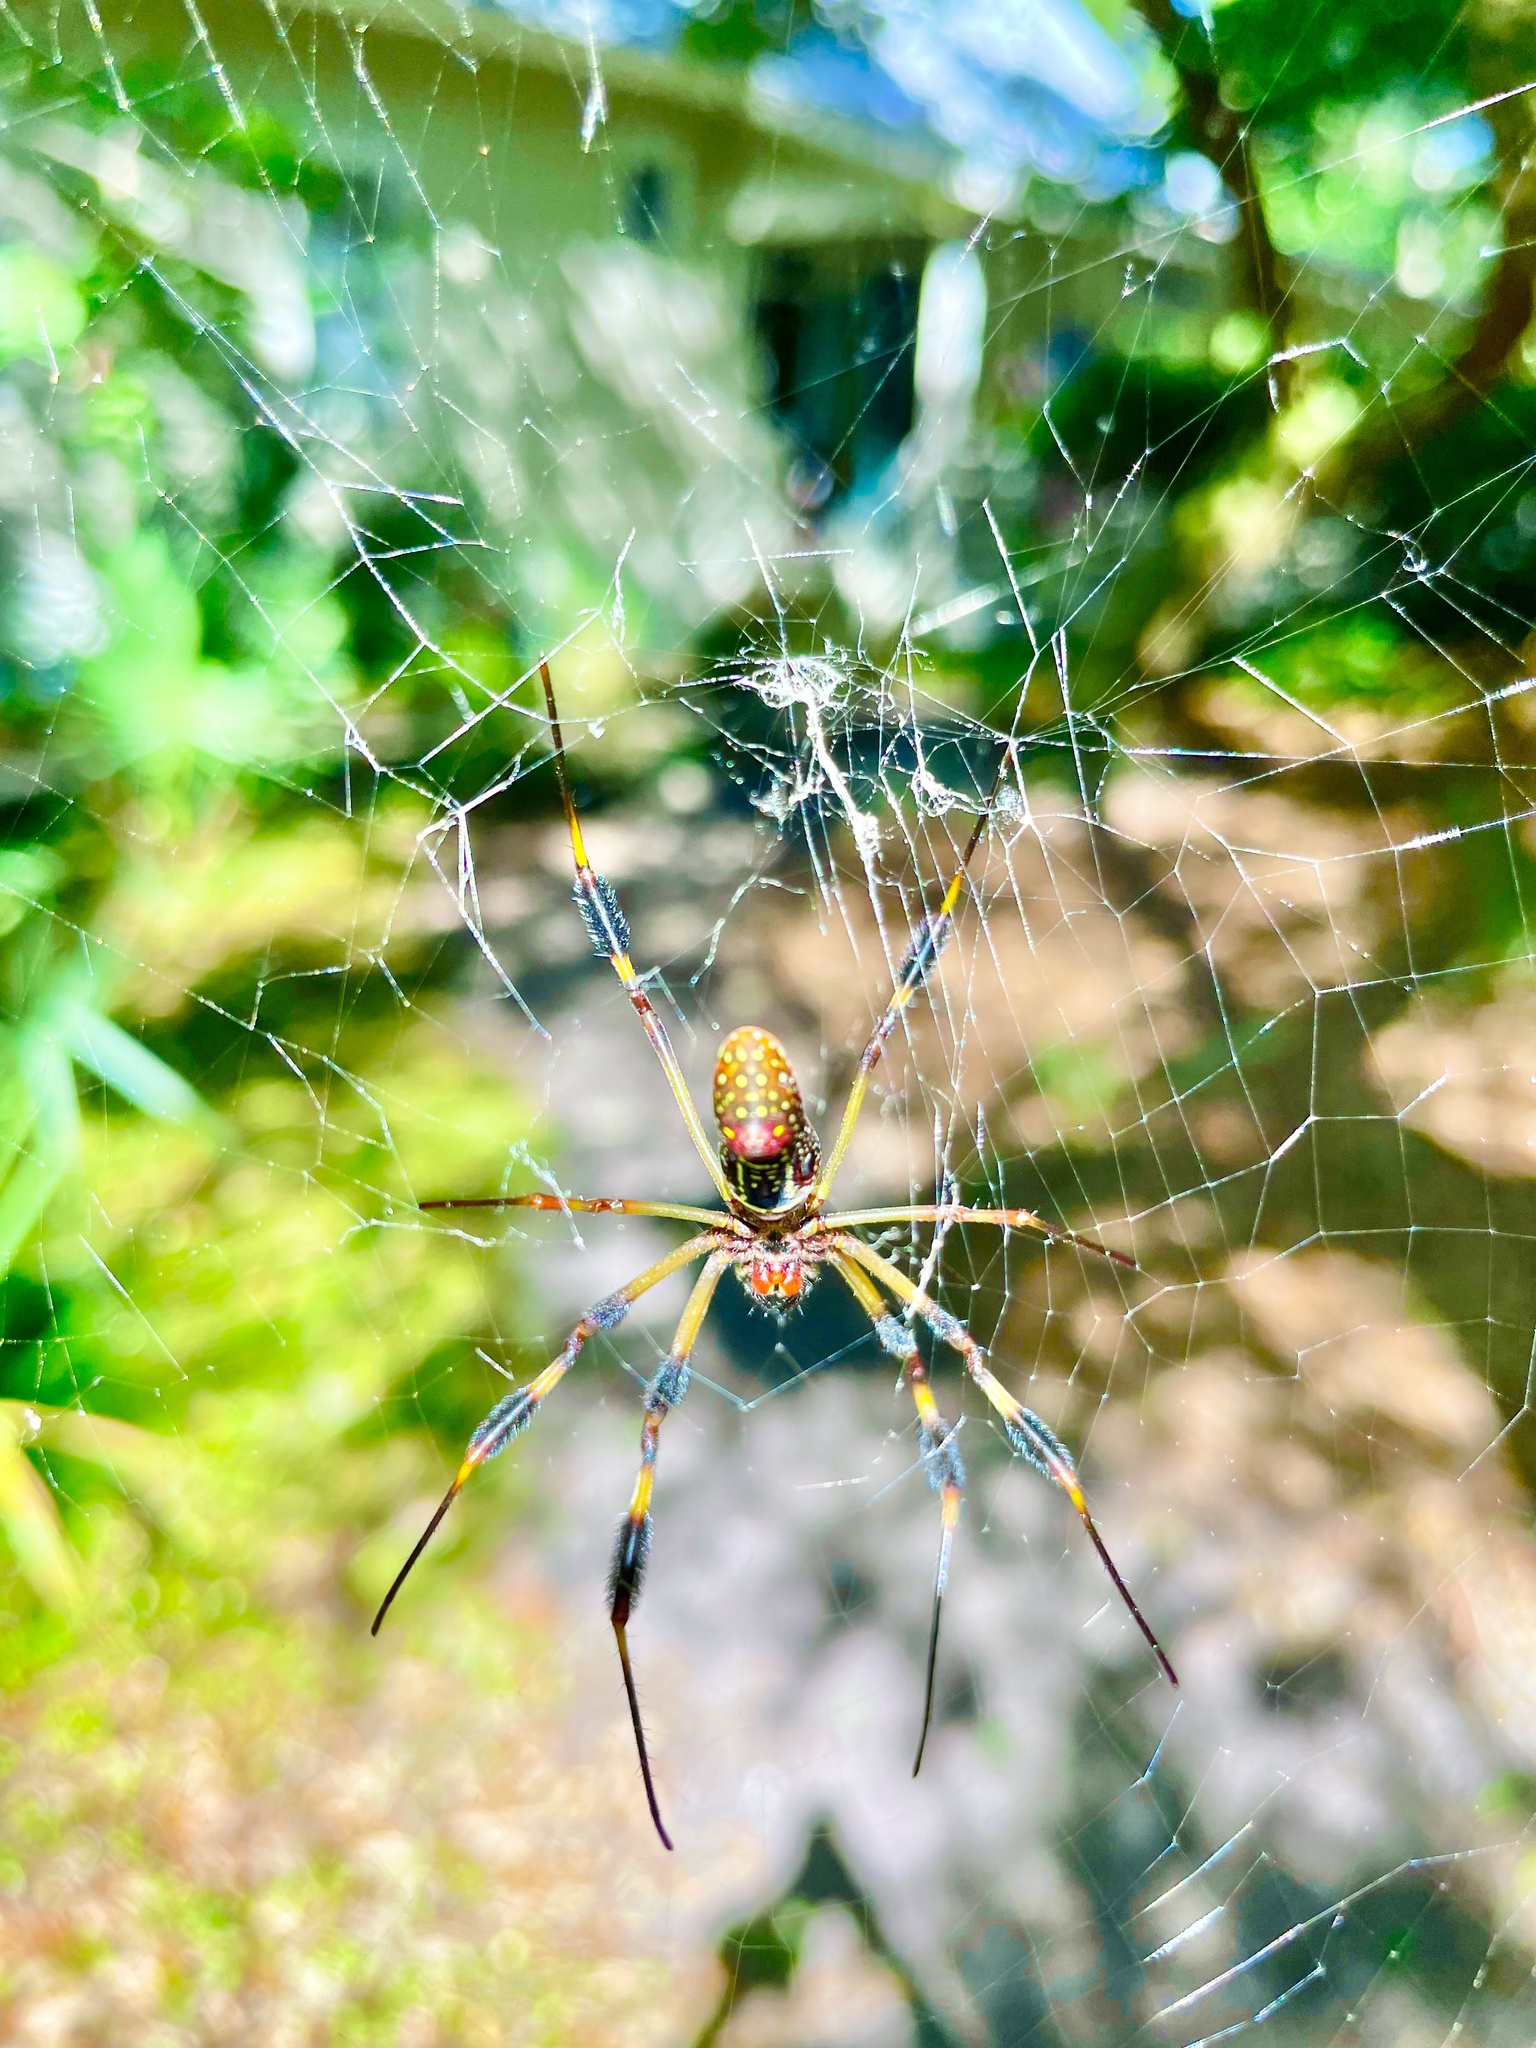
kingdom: Animalia
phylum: Arthropoda
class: Arachnida
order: Araneae
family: Araneidae
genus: Trichonephila
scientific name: Trichonephila clavipes
